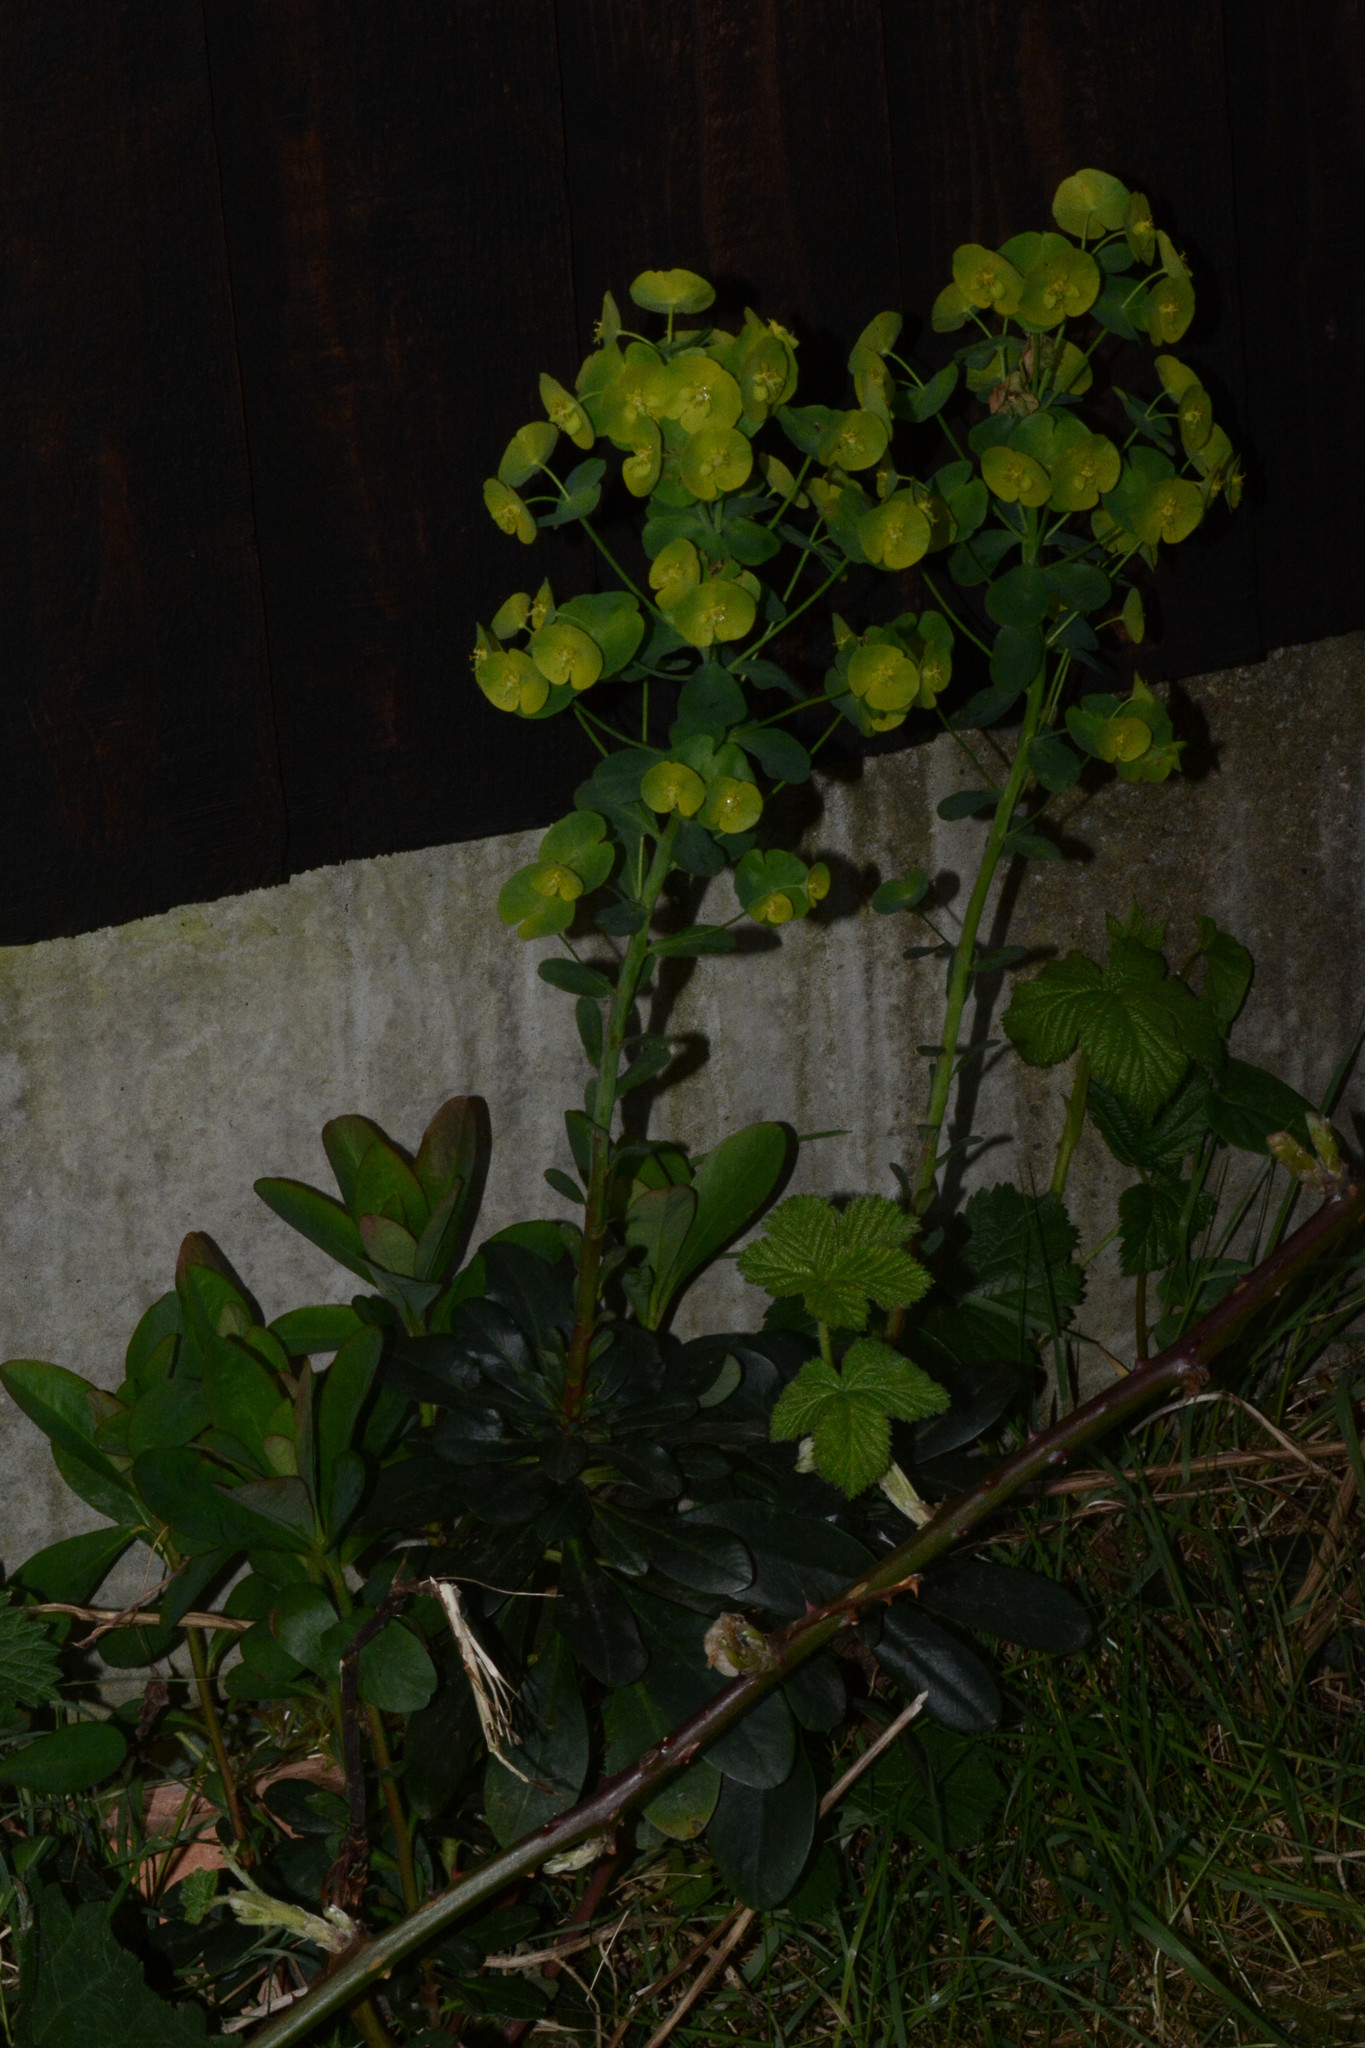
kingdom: Plantae
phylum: Tracheophyta
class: Magnoliopsida
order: Malpighiales
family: Euphorbiaceae
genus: Euphorbia
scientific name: Euphorbia amygdaloides
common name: Wood spurge
